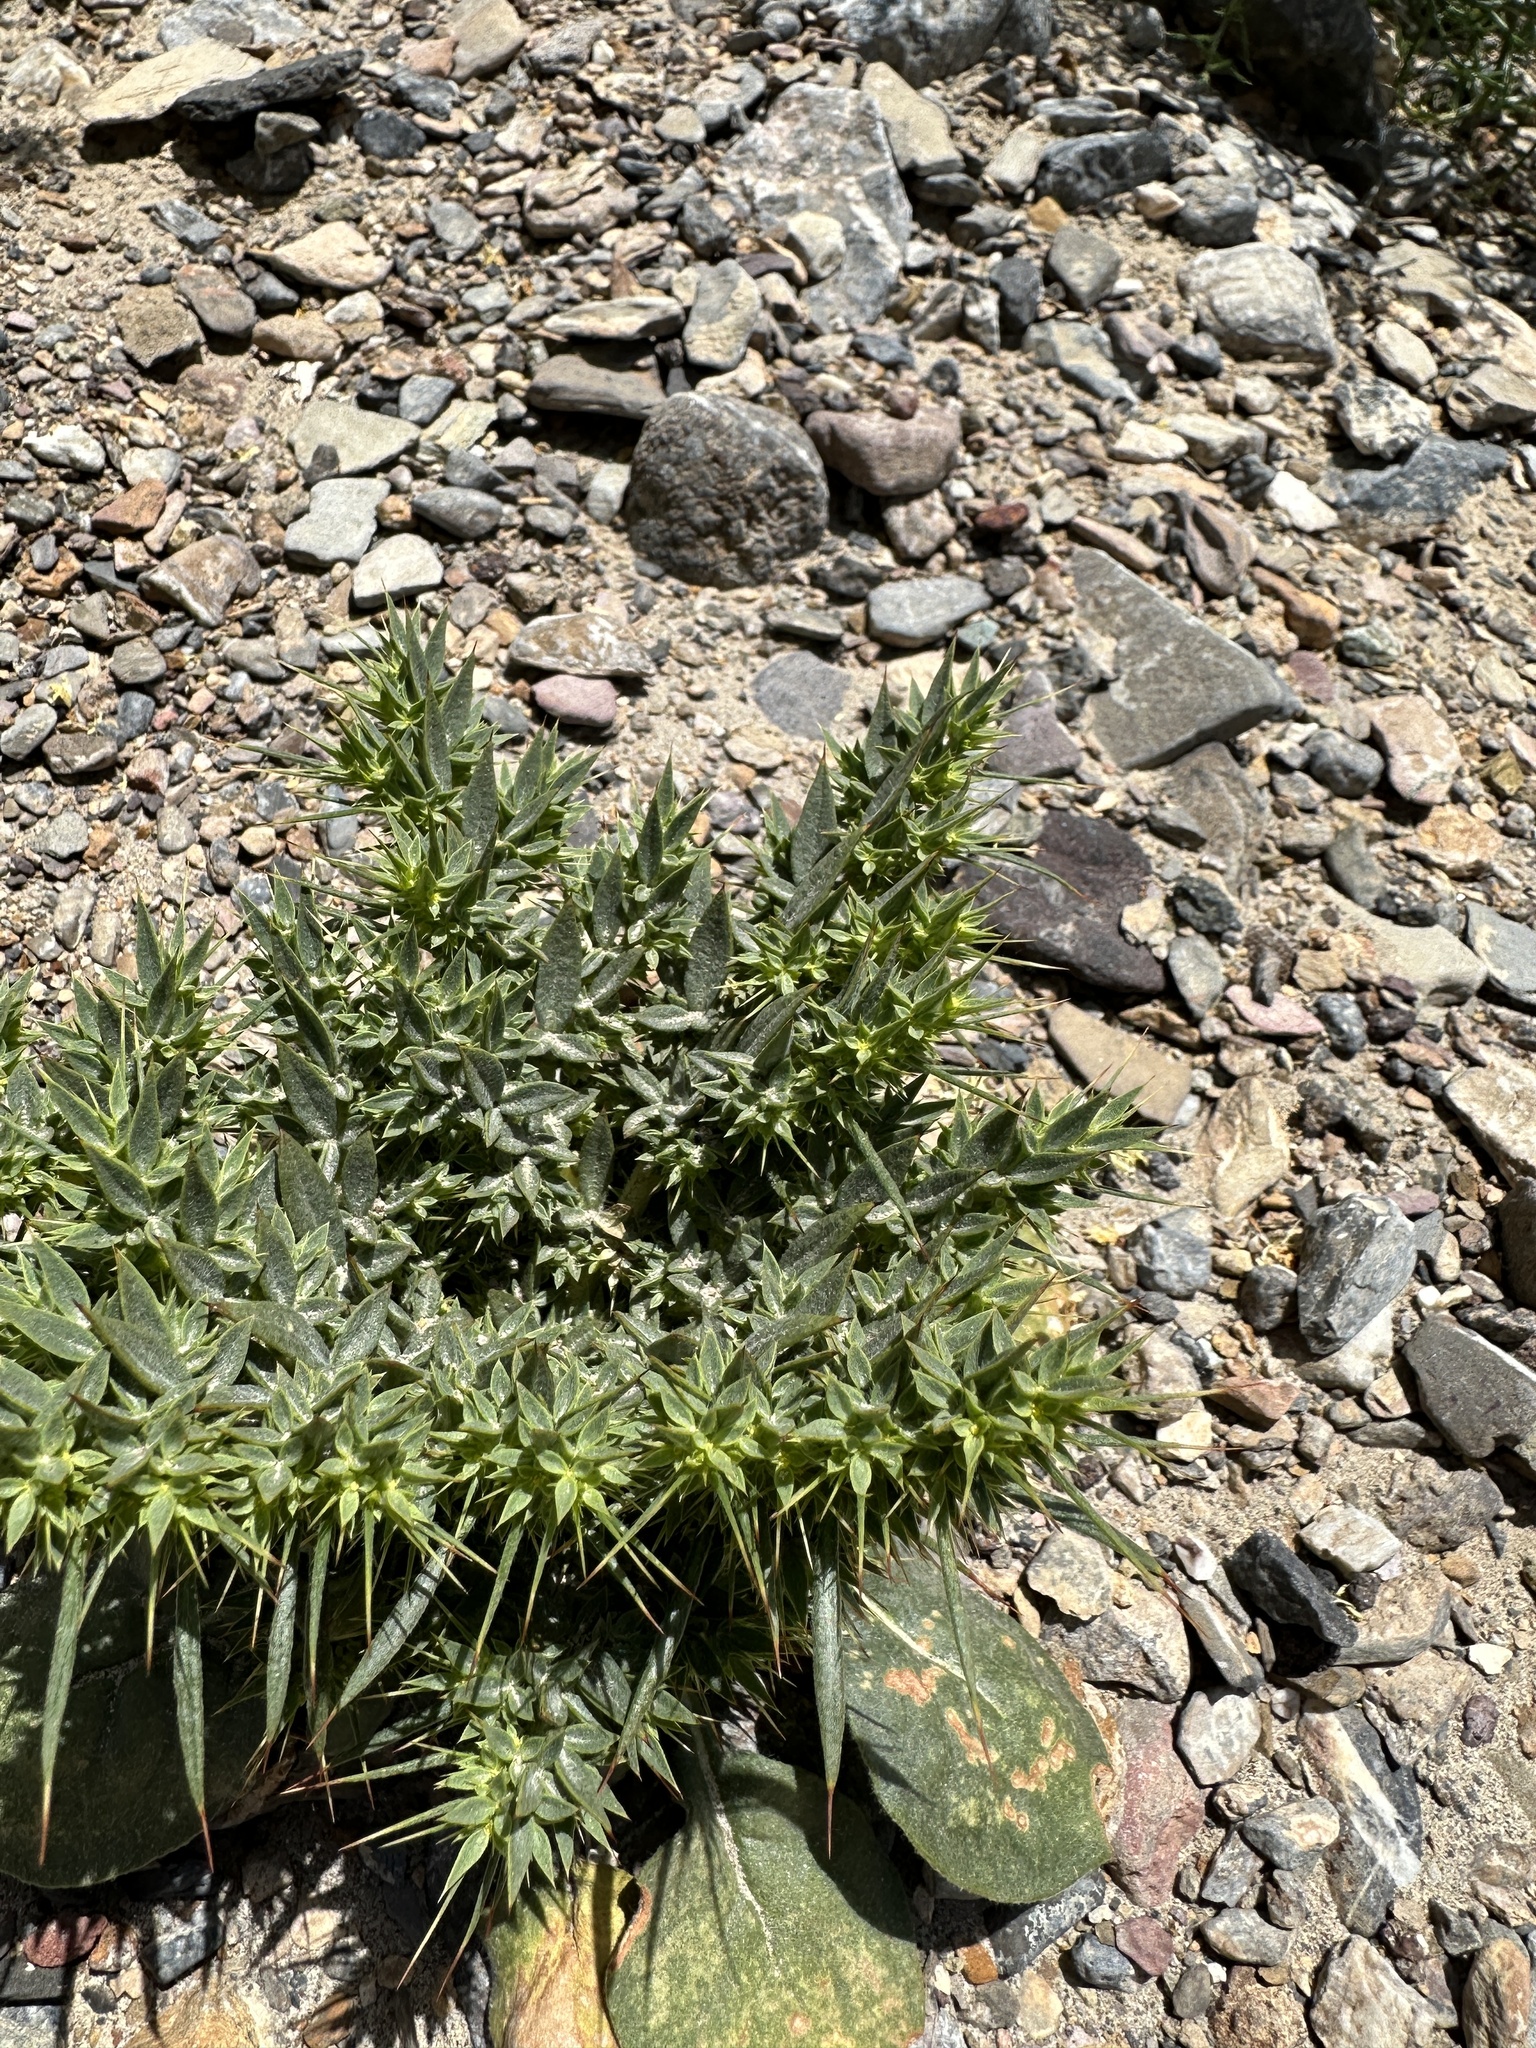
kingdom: Plantae
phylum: Tracheophyta
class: Magnoliopsida
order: Caryophyllales
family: Polygonaceae
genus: Chorizanthe
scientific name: Chorizanthe rigida
